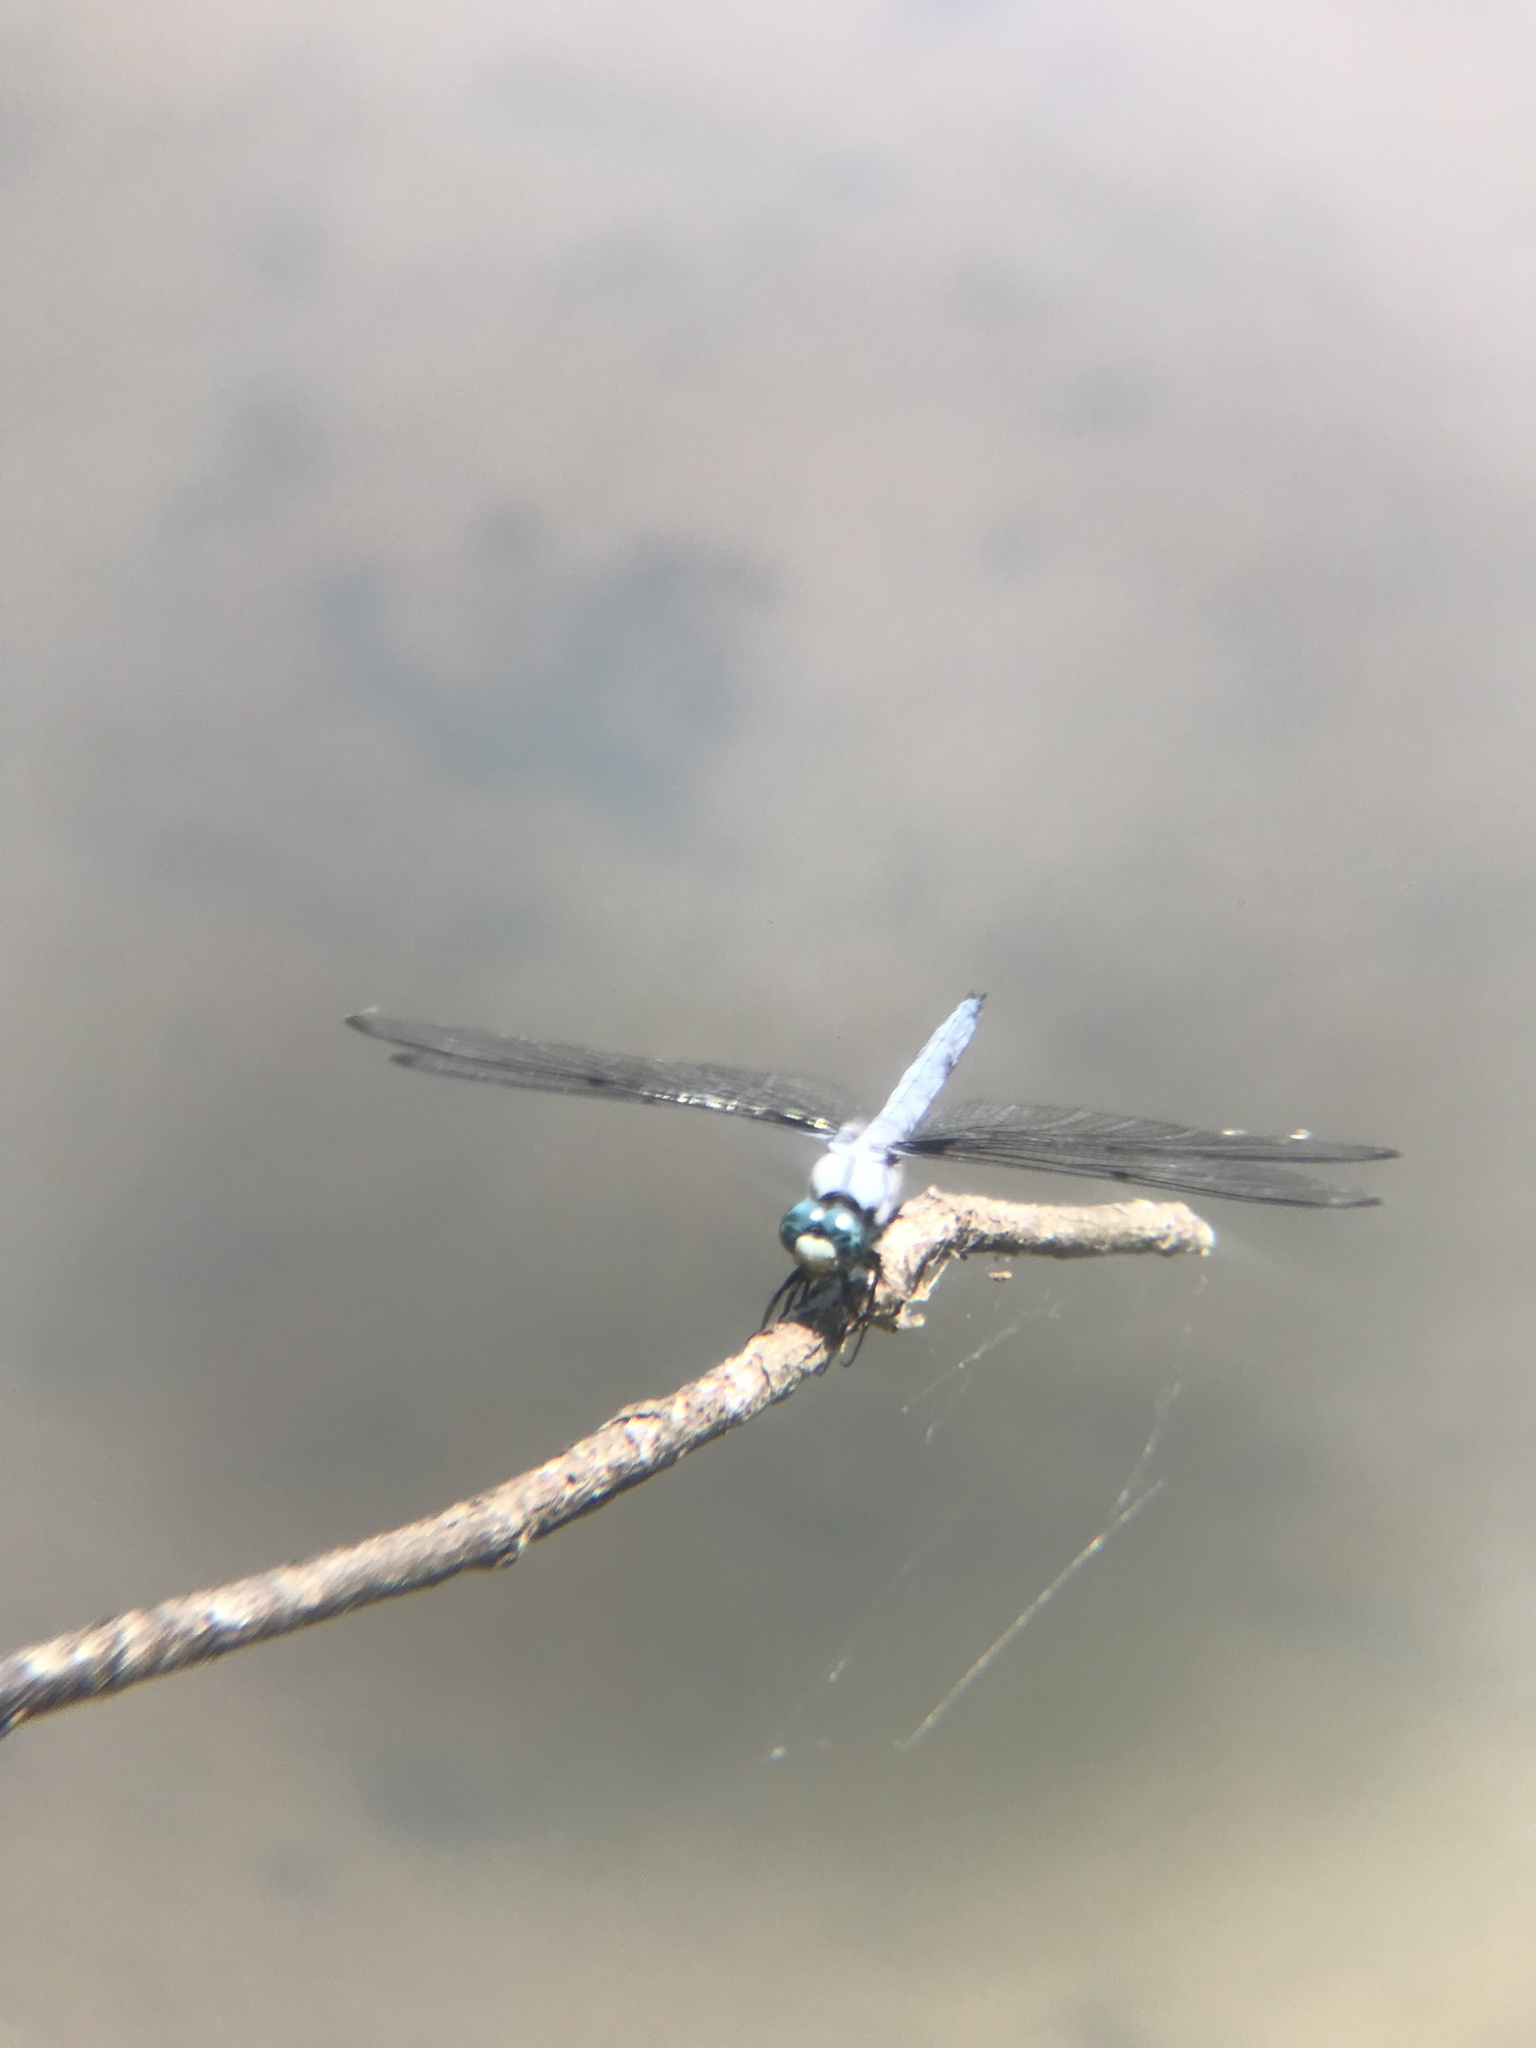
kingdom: Animalia
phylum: Arthropoda
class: Insecta
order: Odonata
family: Libellulidae
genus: Libellula
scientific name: Libellula vibrans
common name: Great blue skimmer
